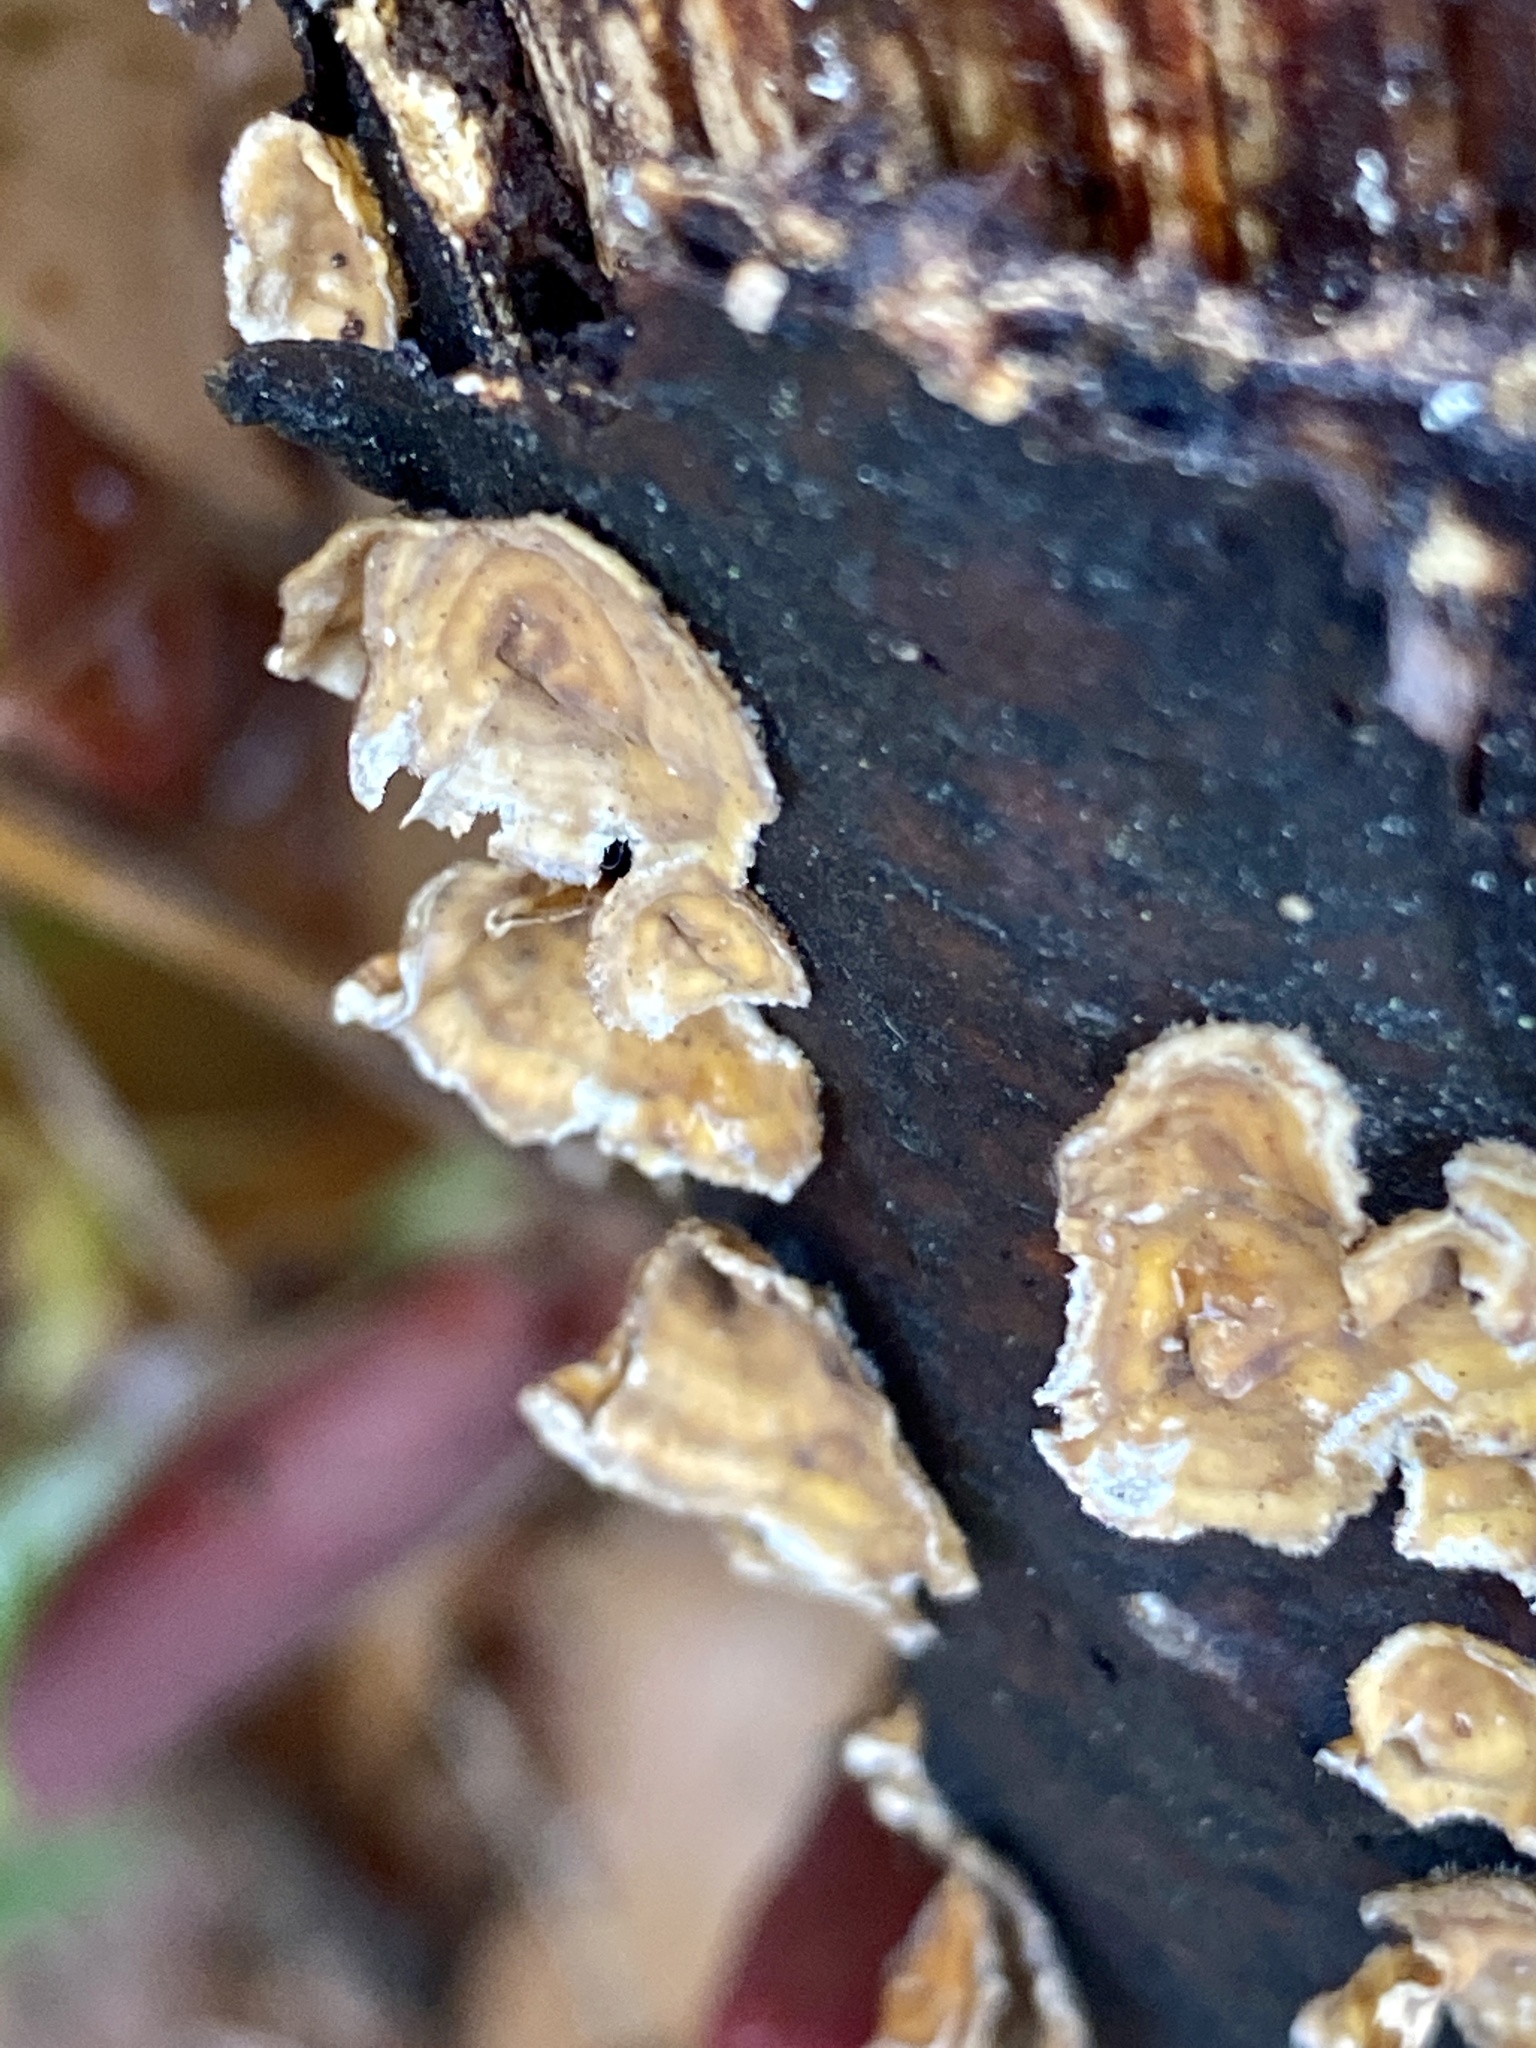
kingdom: Fungi
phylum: Basidiomycota
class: Agaricomycetes
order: Russulales
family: Stereaceae
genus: Stereum
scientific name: Stereum complicatum
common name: Crowded parchment
